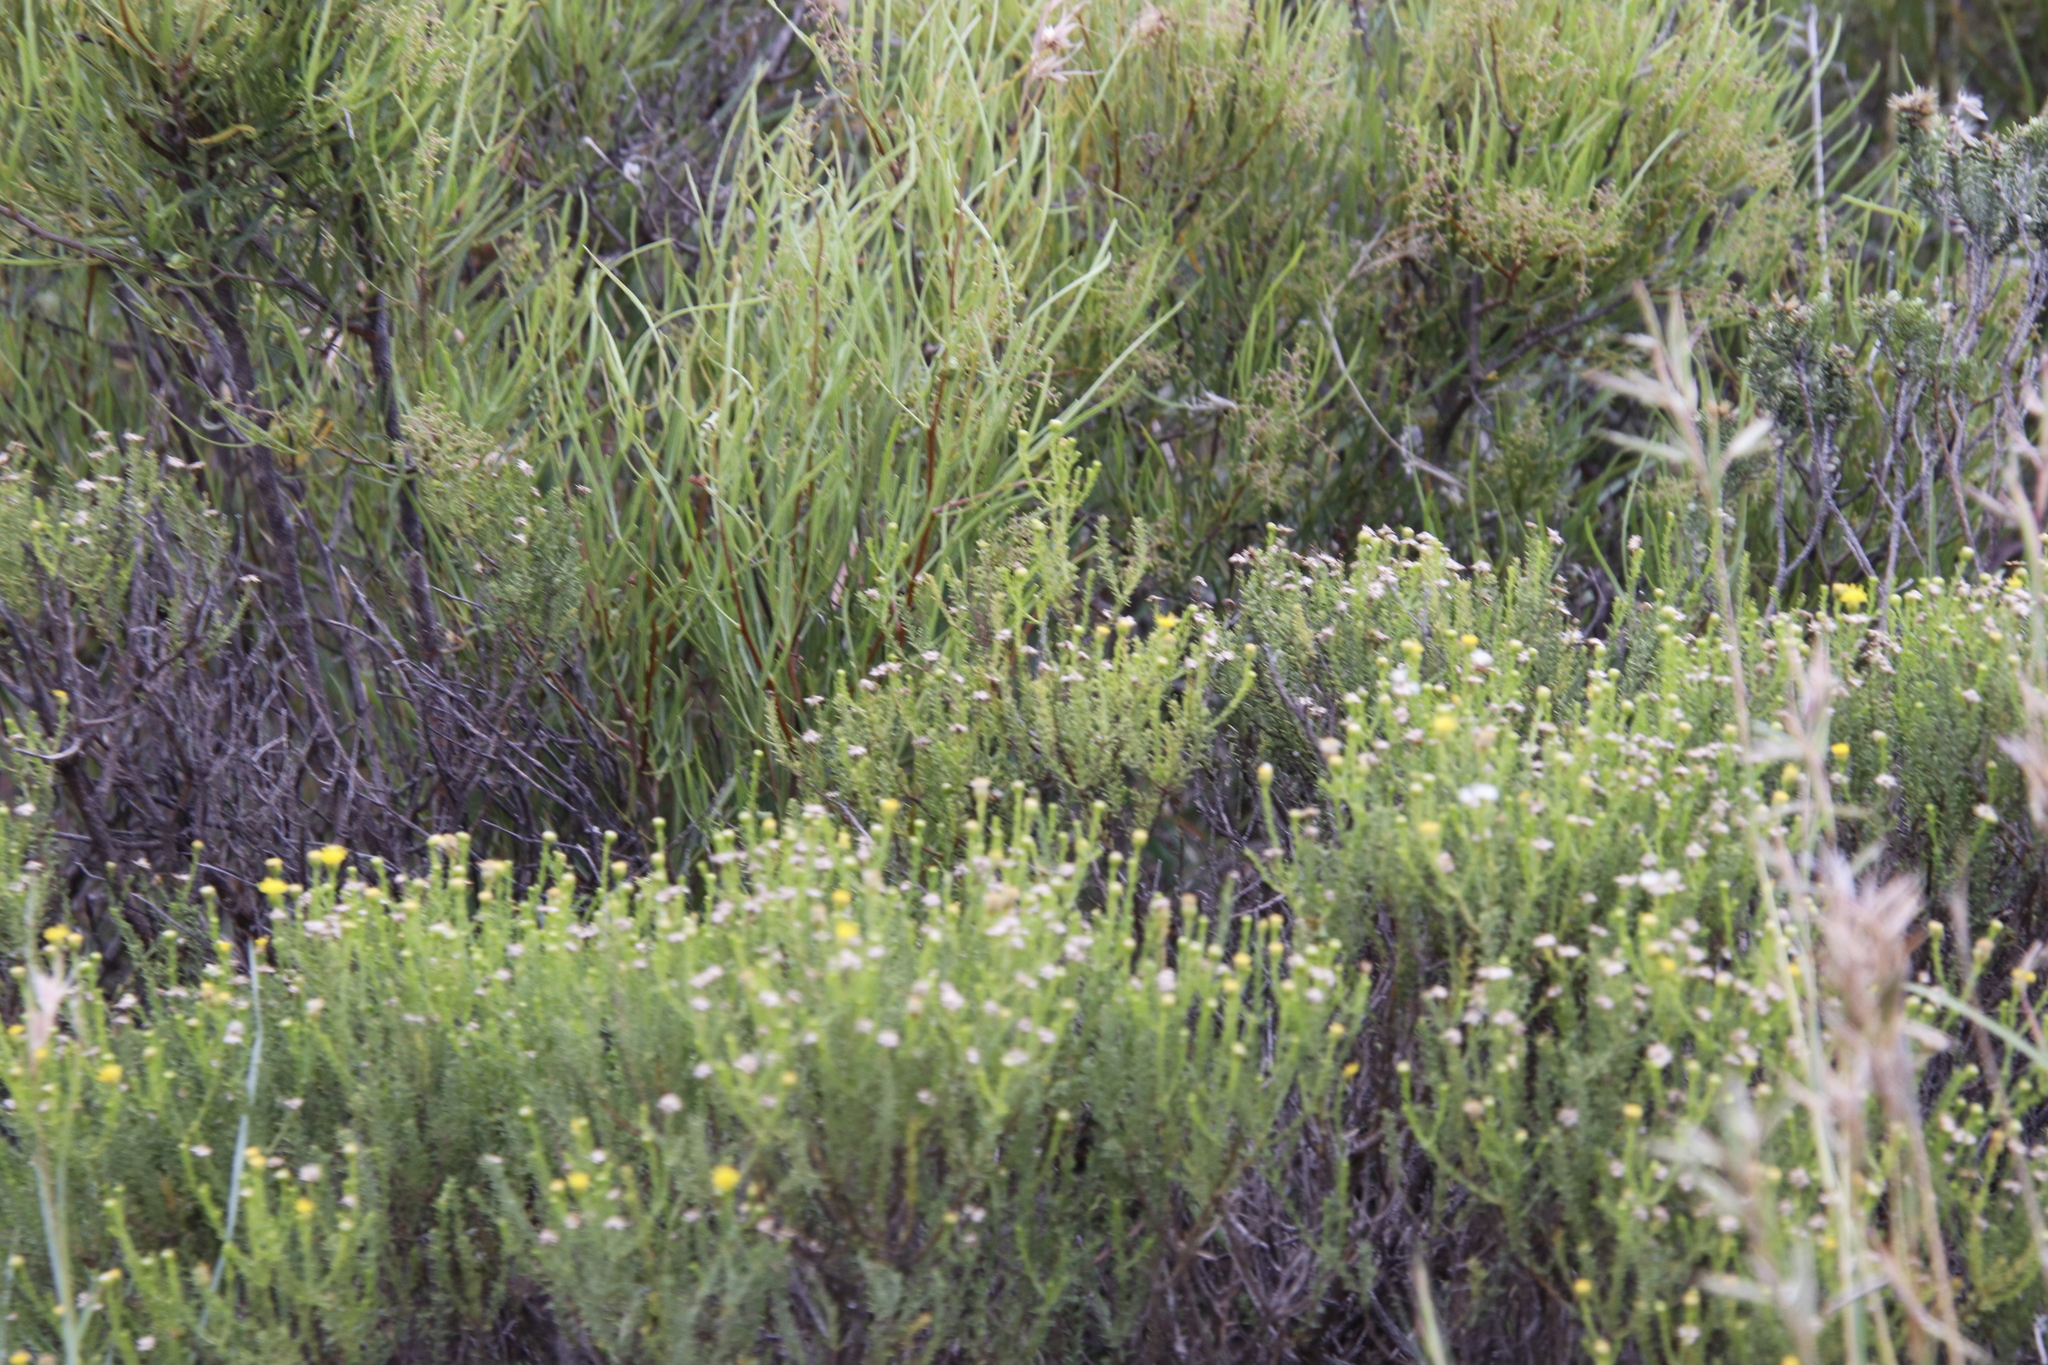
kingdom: Plantae
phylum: Tracheophyta
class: Magnoliopsida
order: Asterales
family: Asteraceae
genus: Chrysocoma
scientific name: Chrysocoma ciliata
